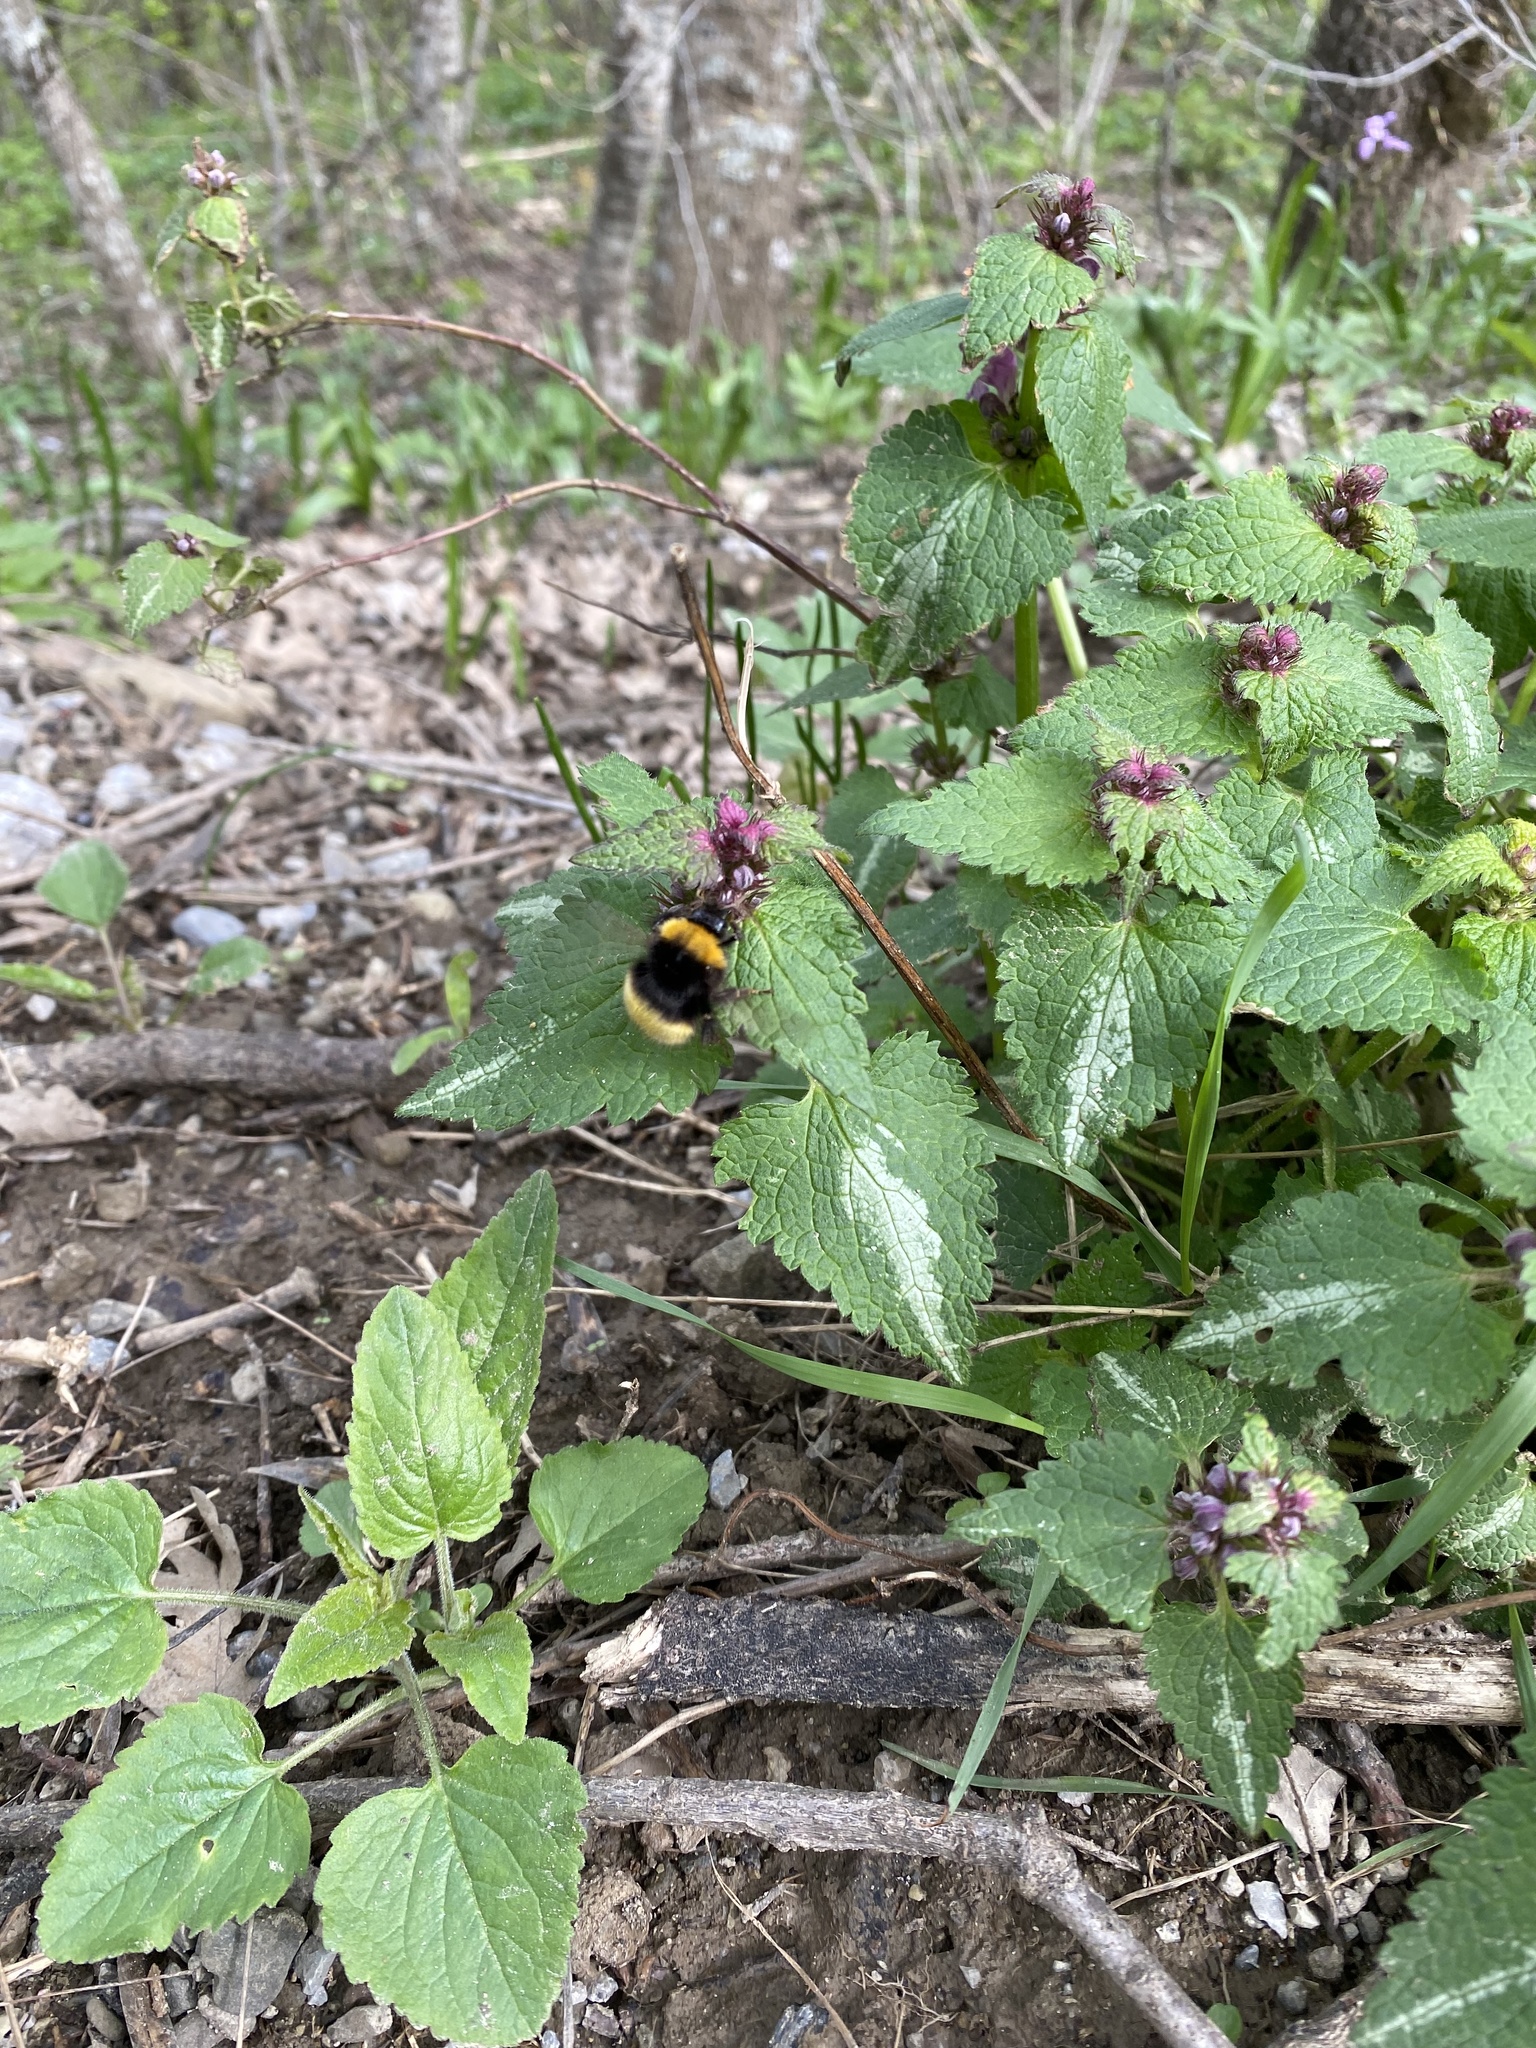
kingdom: Animalia
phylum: Arthropoda
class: Insecta
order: Hymenoptera
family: Apidae
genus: Bombus
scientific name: Bombus haematurus
